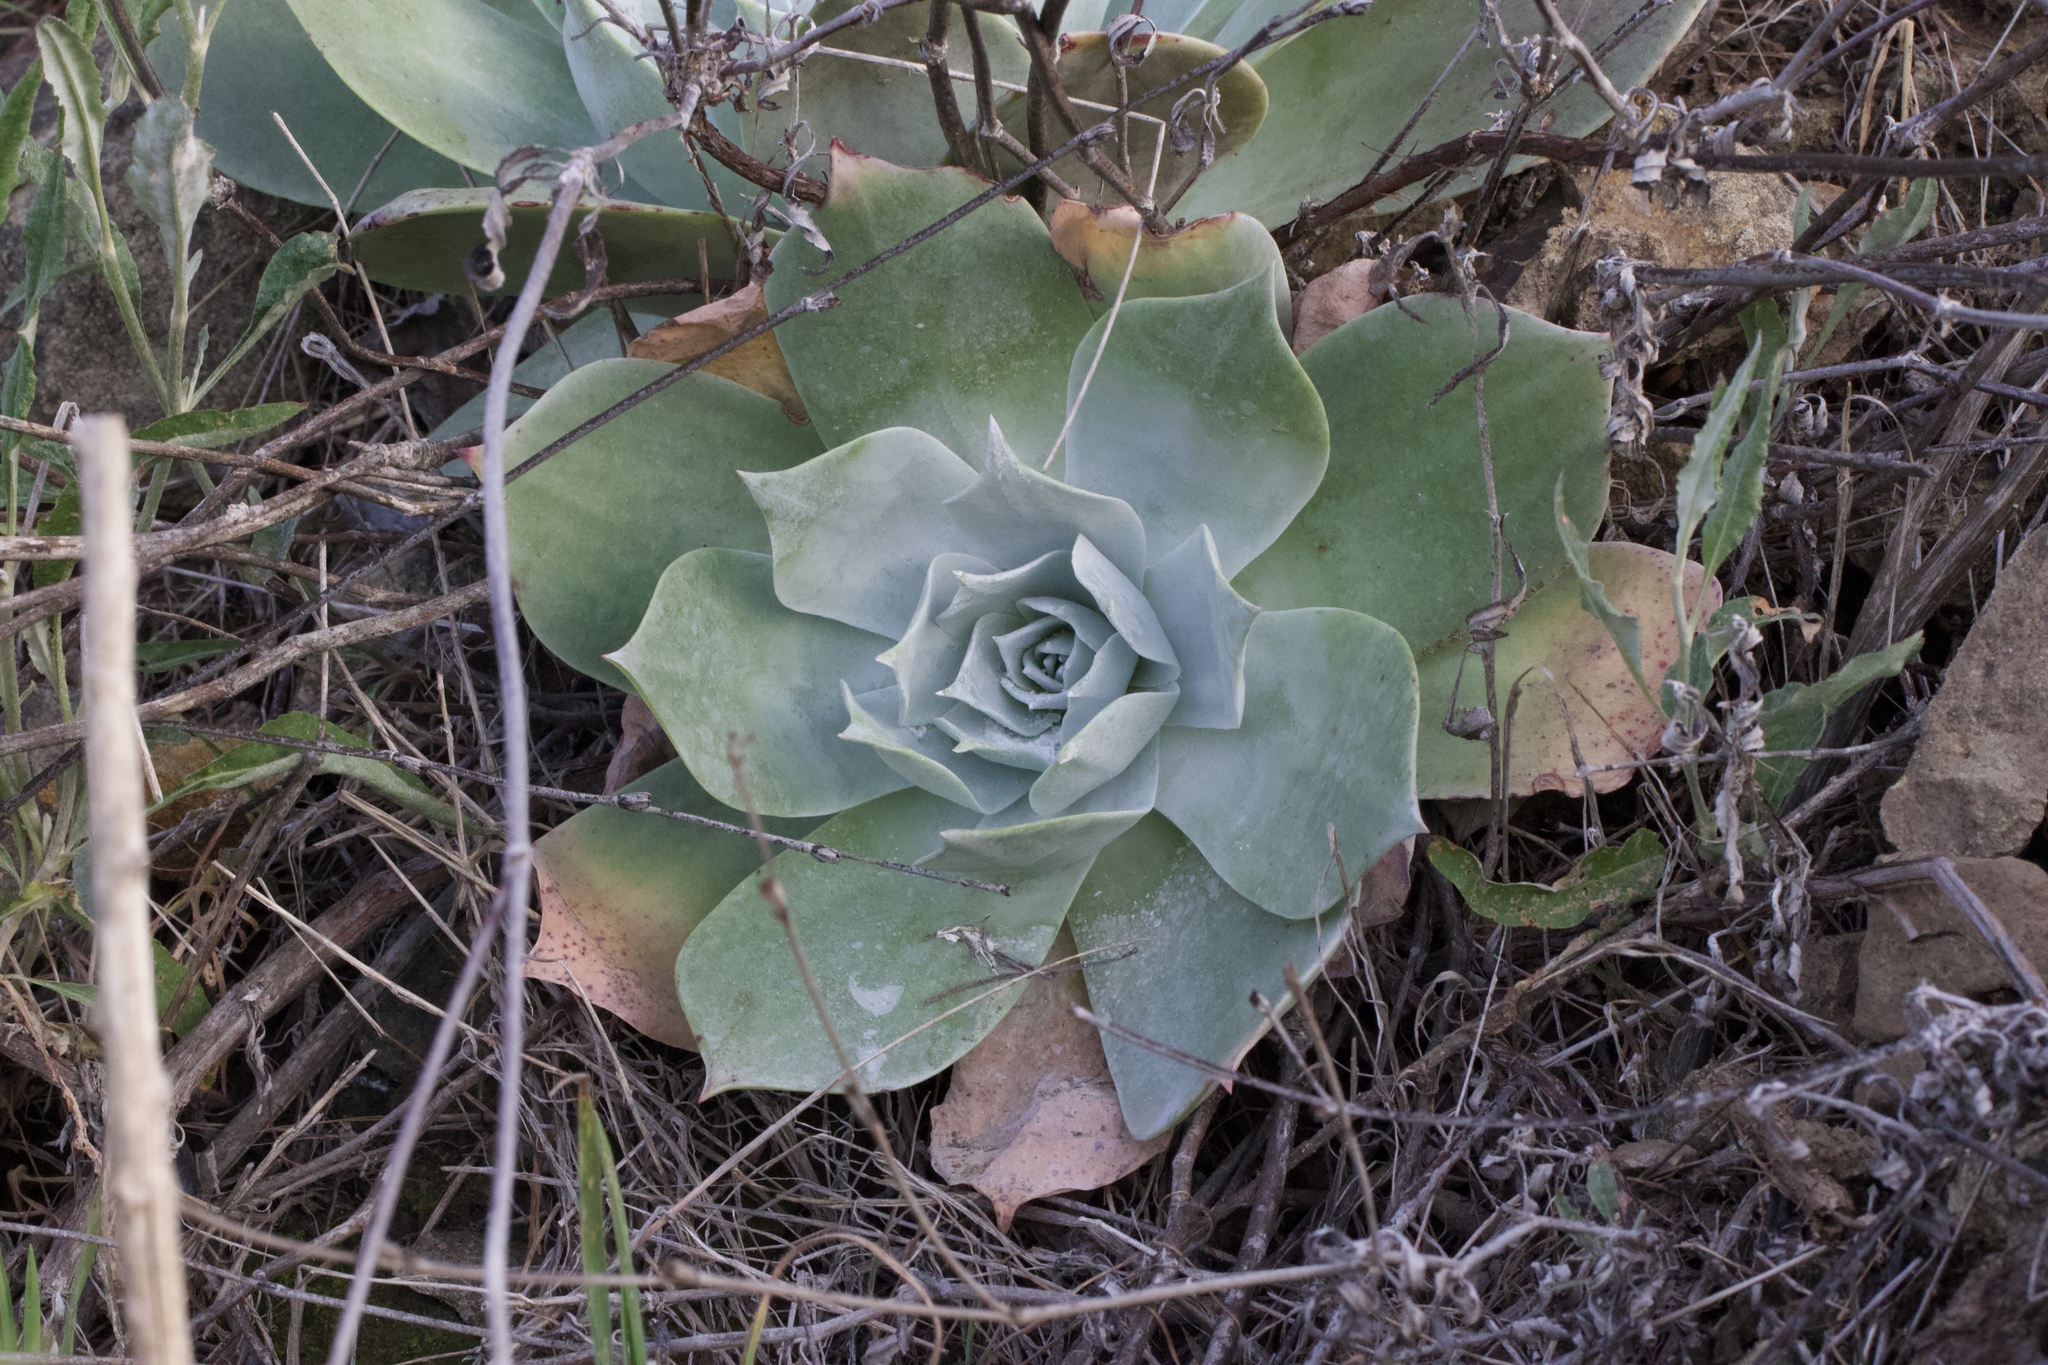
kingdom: Plantae
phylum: Tracheophyta
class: Magnoliopsida
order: Saxifragales
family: Crassulaceae
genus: Dudleya
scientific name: Dudleya pulverulenta
